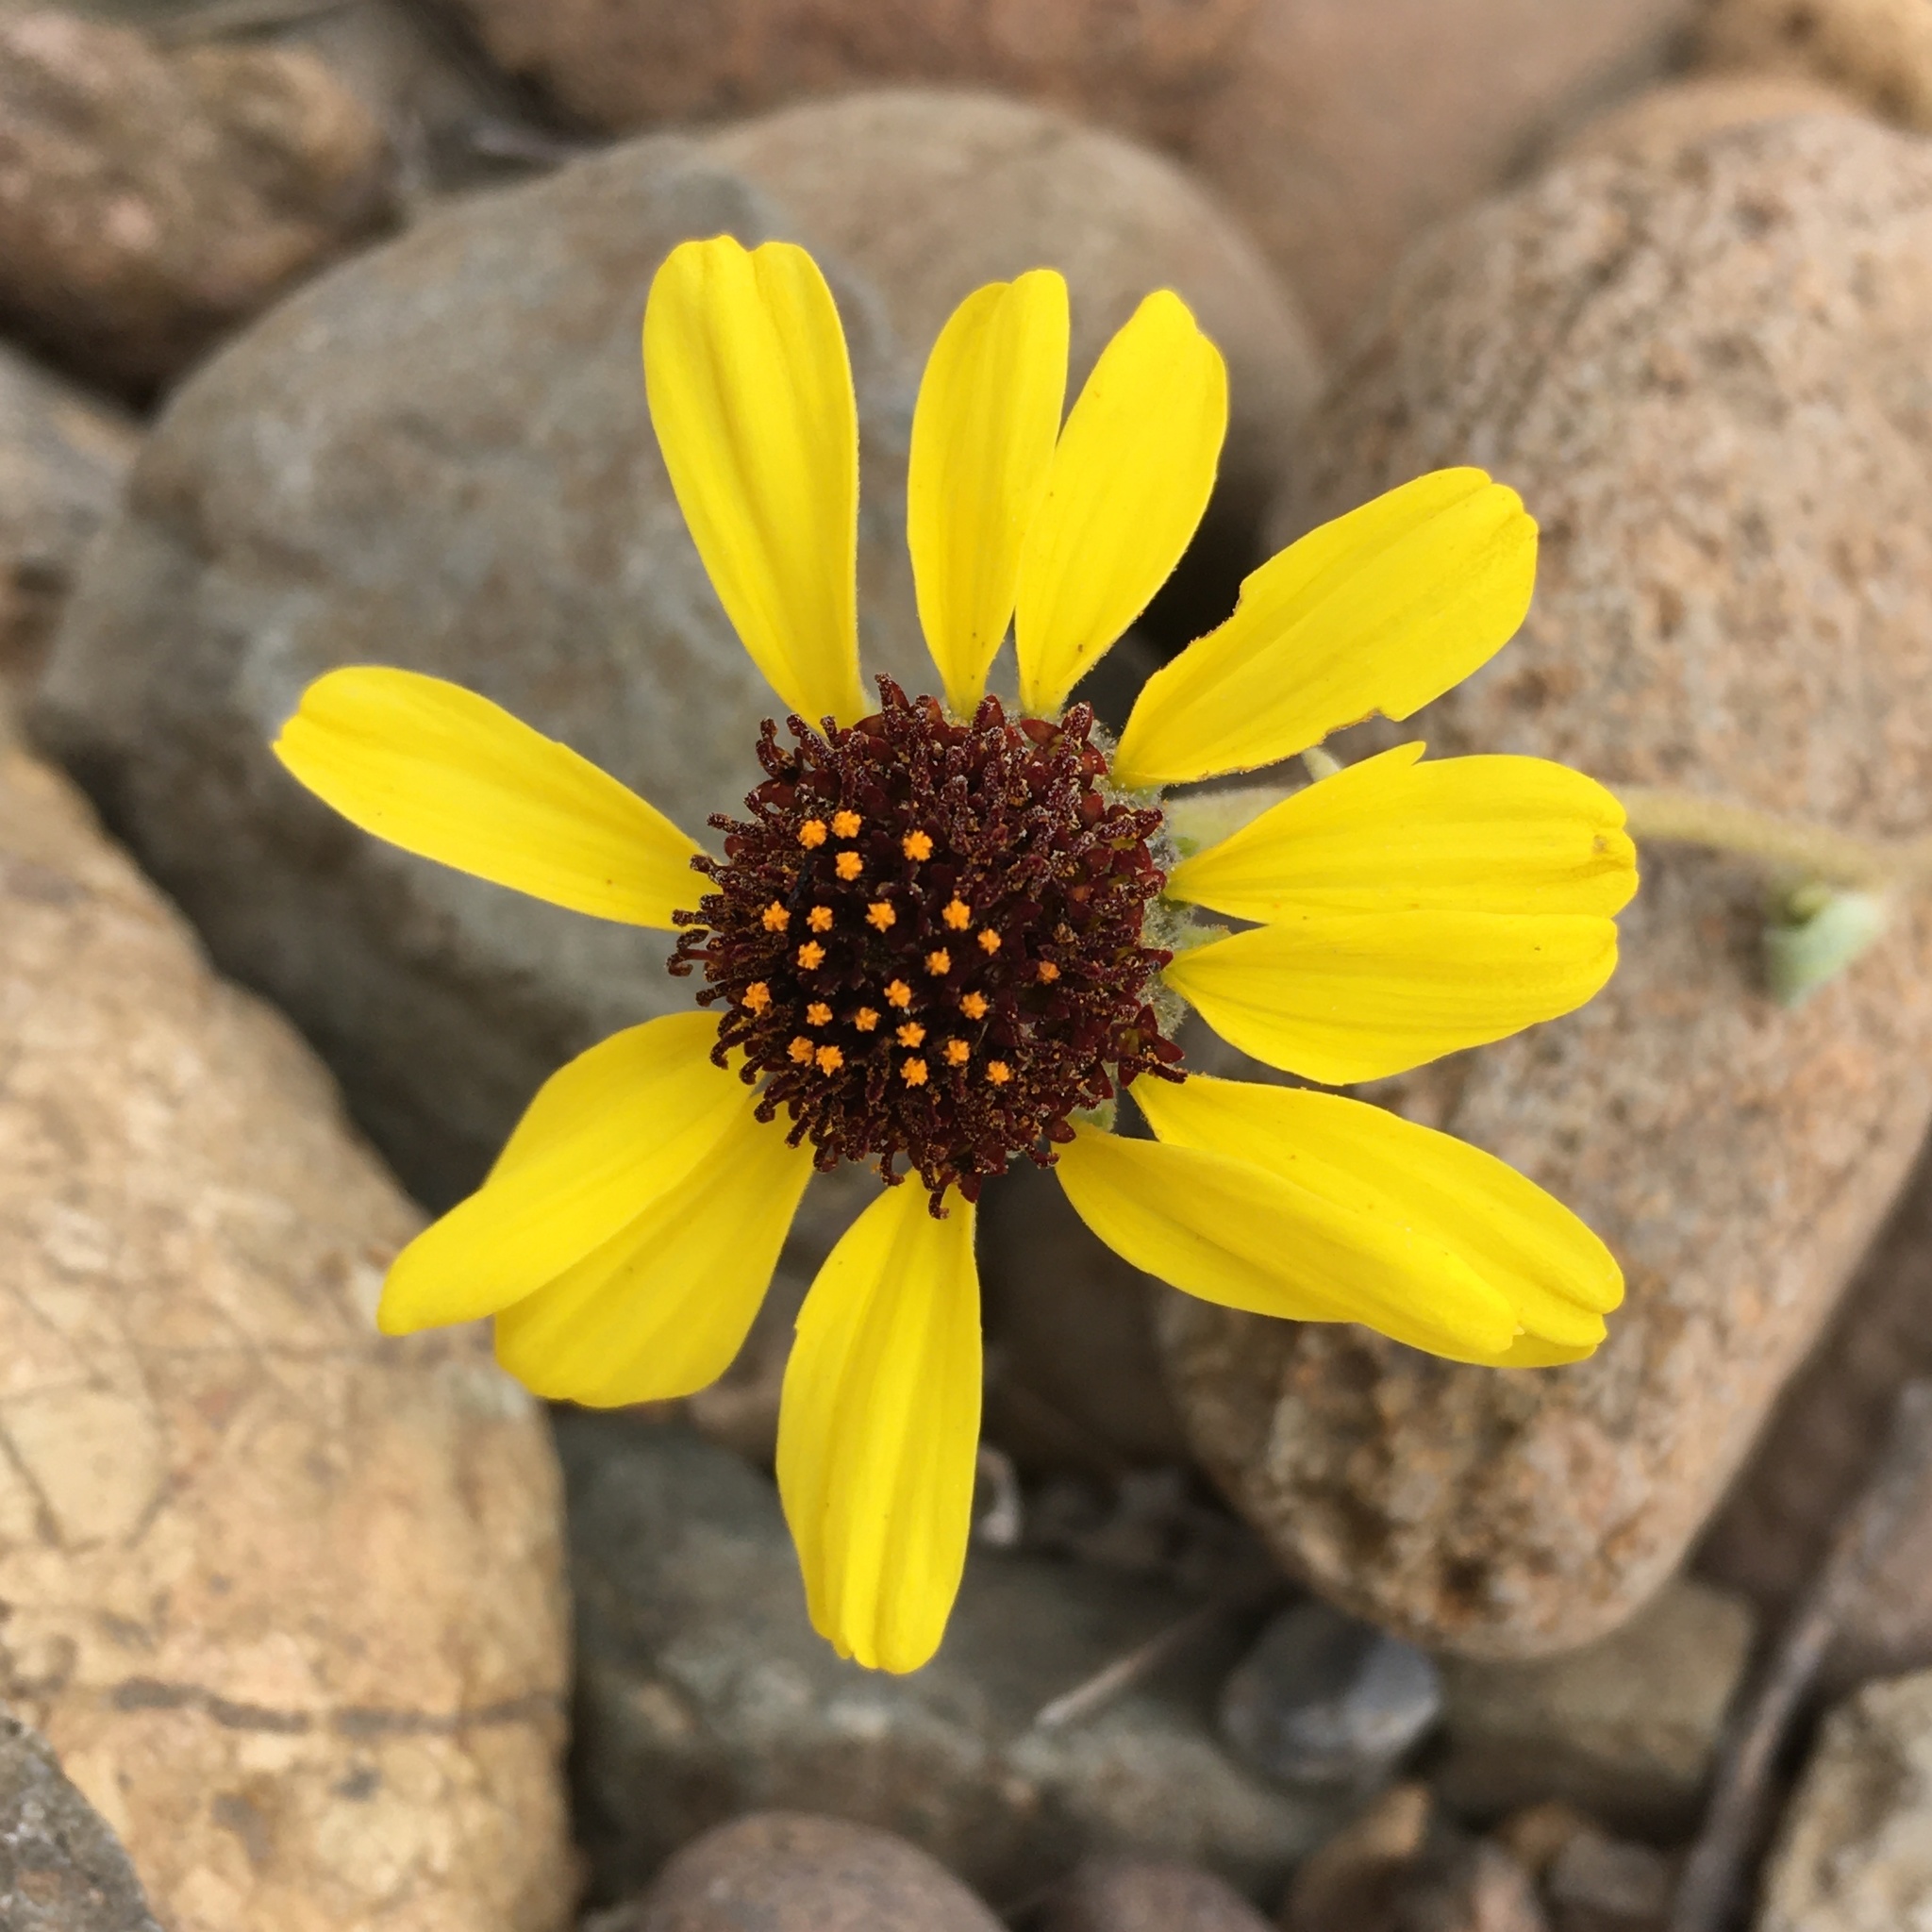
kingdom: Plantae
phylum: Tracheophyta
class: Magnoliopsida
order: Asterales
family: Asteraceae
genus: Encelia
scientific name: Encelia canescens
